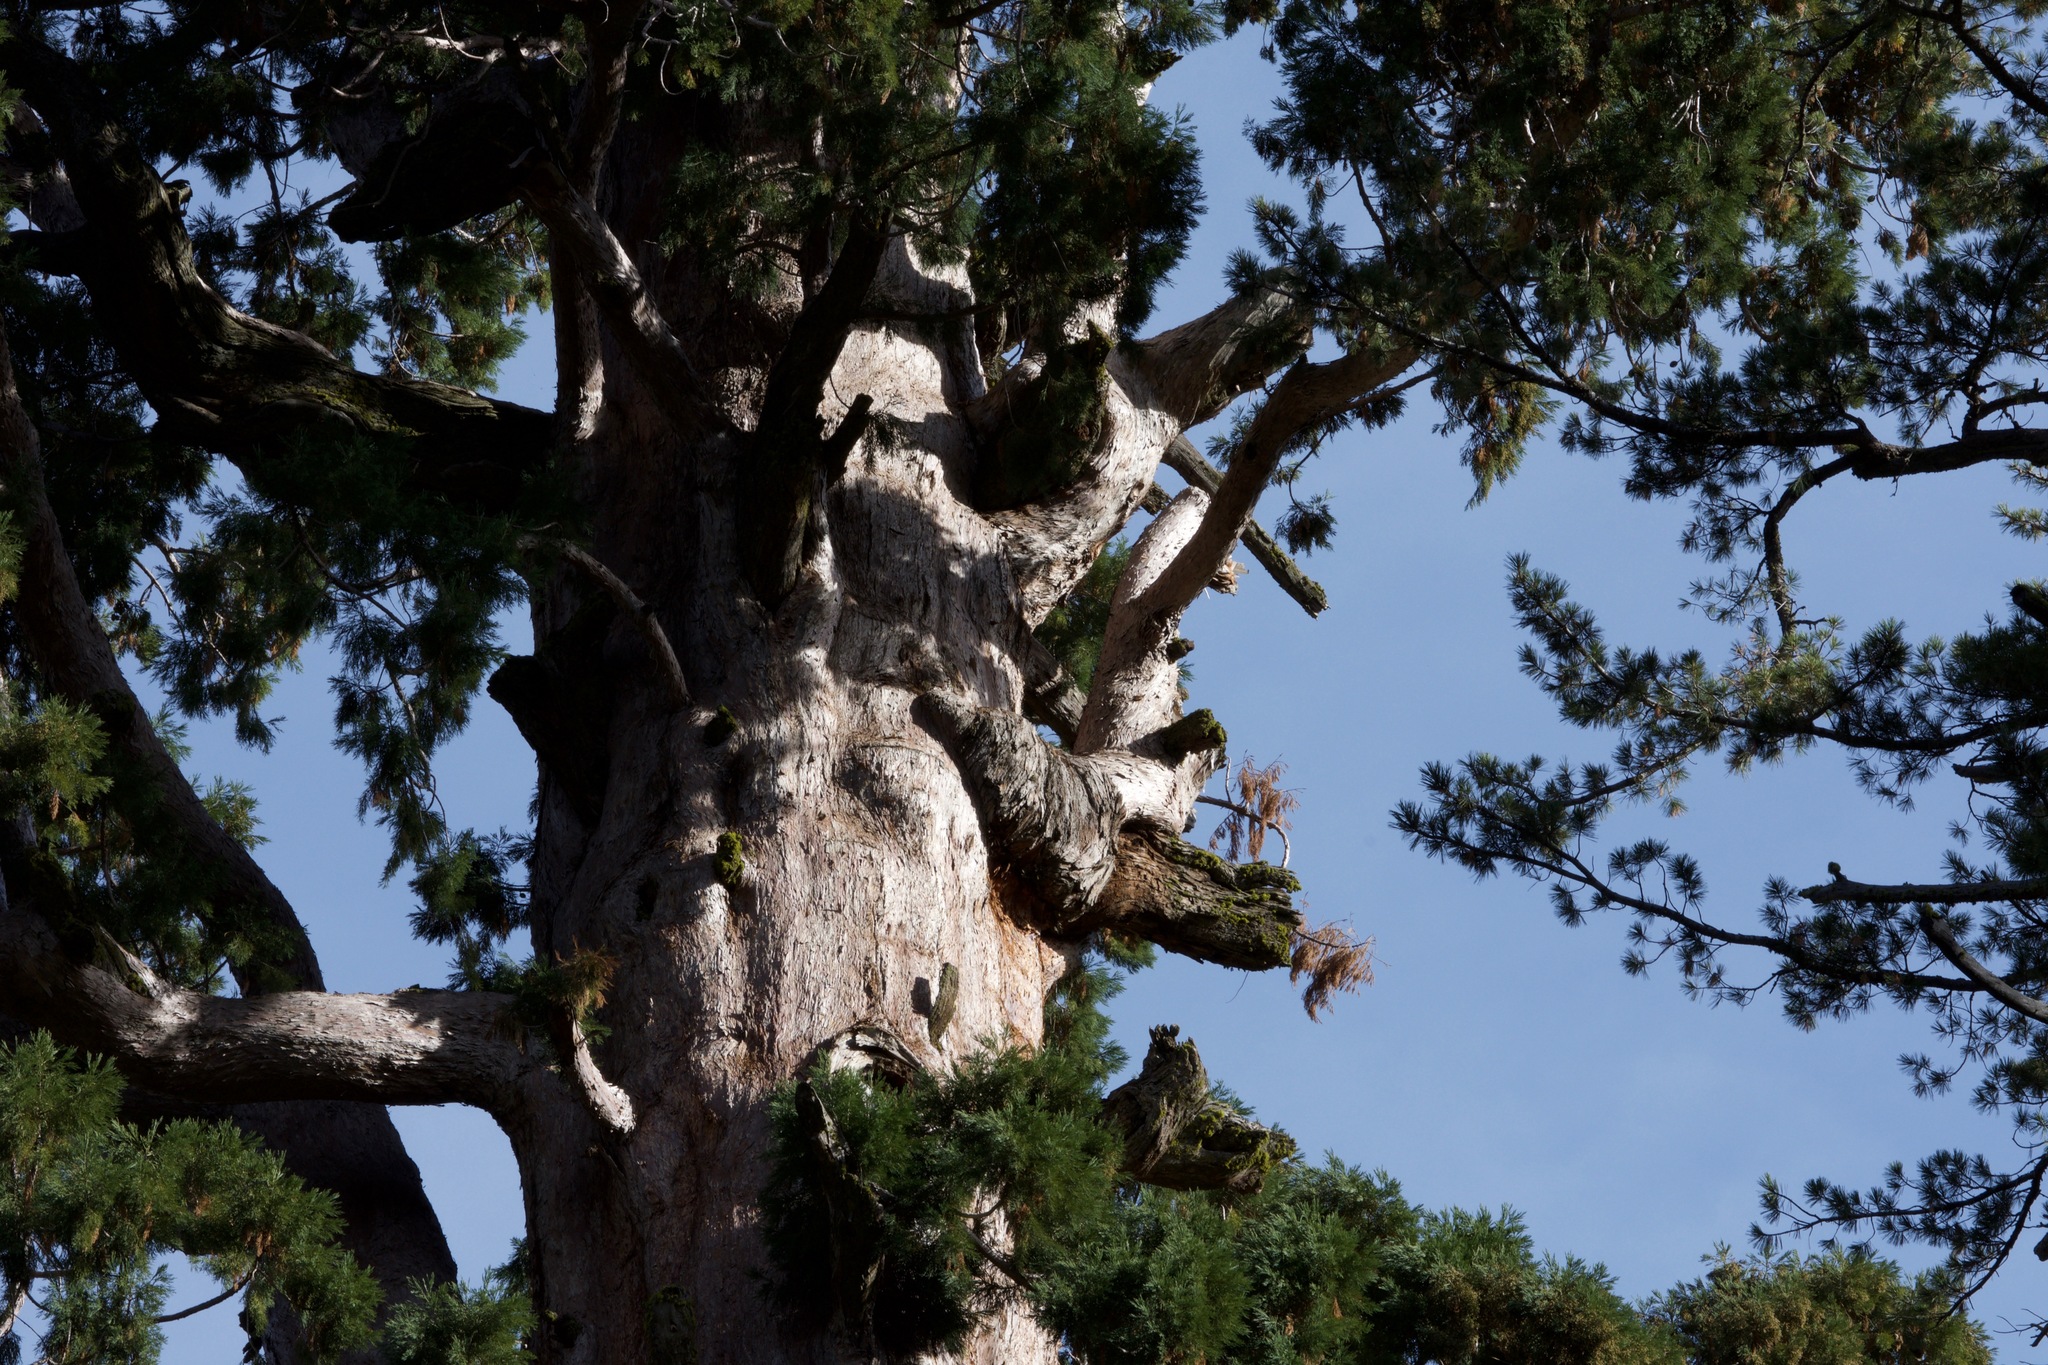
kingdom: Plantae
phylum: Tracheophyta
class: Pinopsida
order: Pinales
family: Cupressaceae
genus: Sequoiadendron
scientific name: Sequoiadendron giganteum
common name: Wellingtonia
